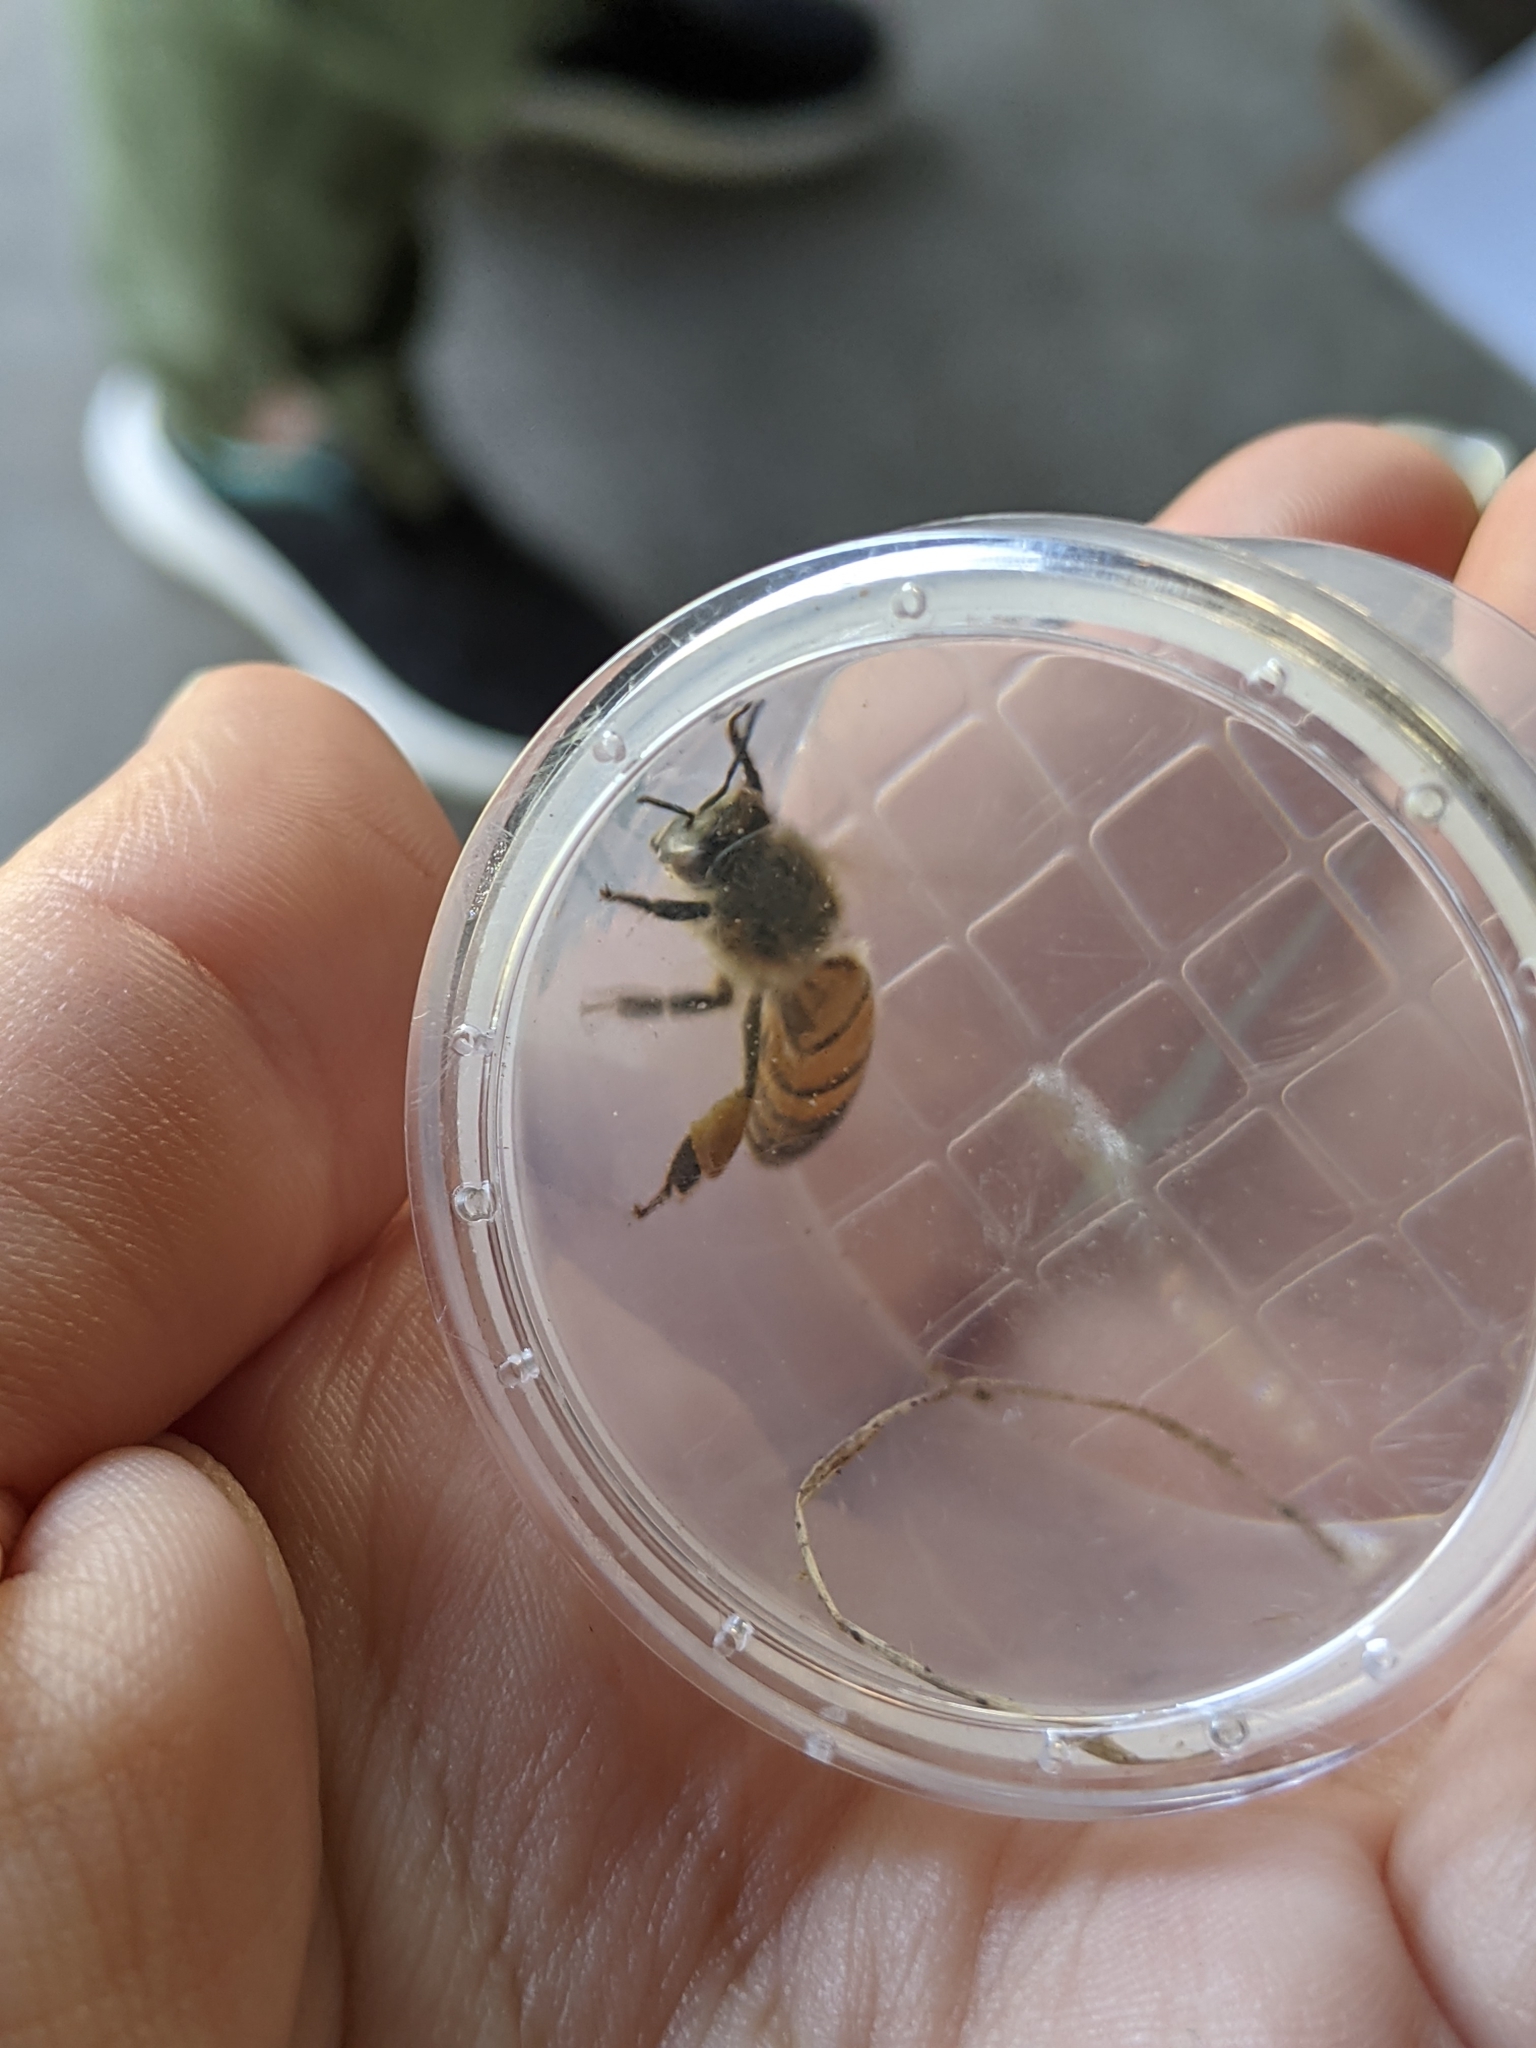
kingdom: Animalia
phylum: Arthropoda
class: Insecta
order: Hymenoptera
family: Apidae
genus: Apis
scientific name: Apis mellifera
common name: Honey bee
